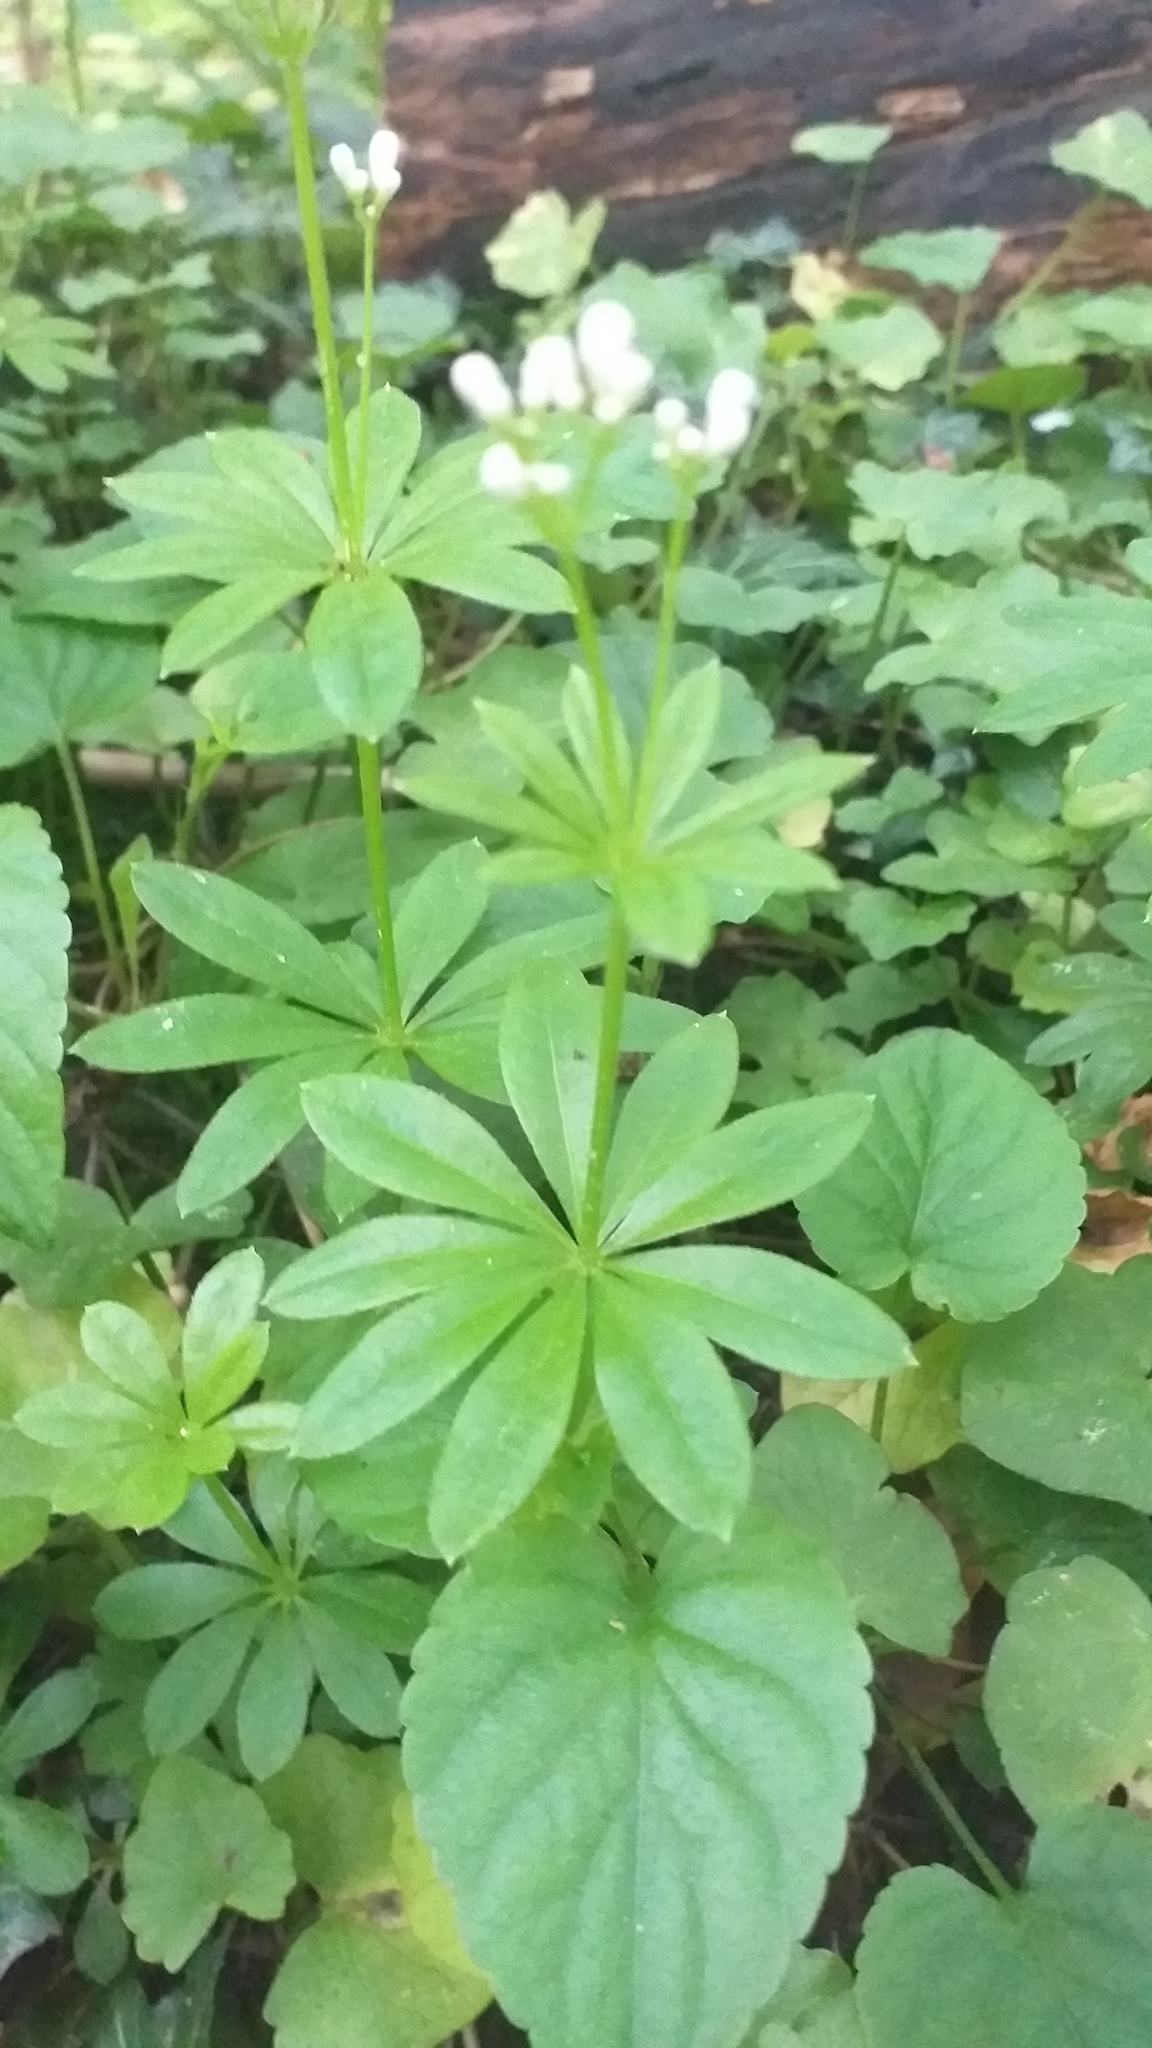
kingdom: Plantae
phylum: Tracheophyta
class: Magnoliopsida
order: Gentianales
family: Rubiaceae
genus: Galium
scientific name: Galium odoratum
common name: Sweet woodruff
